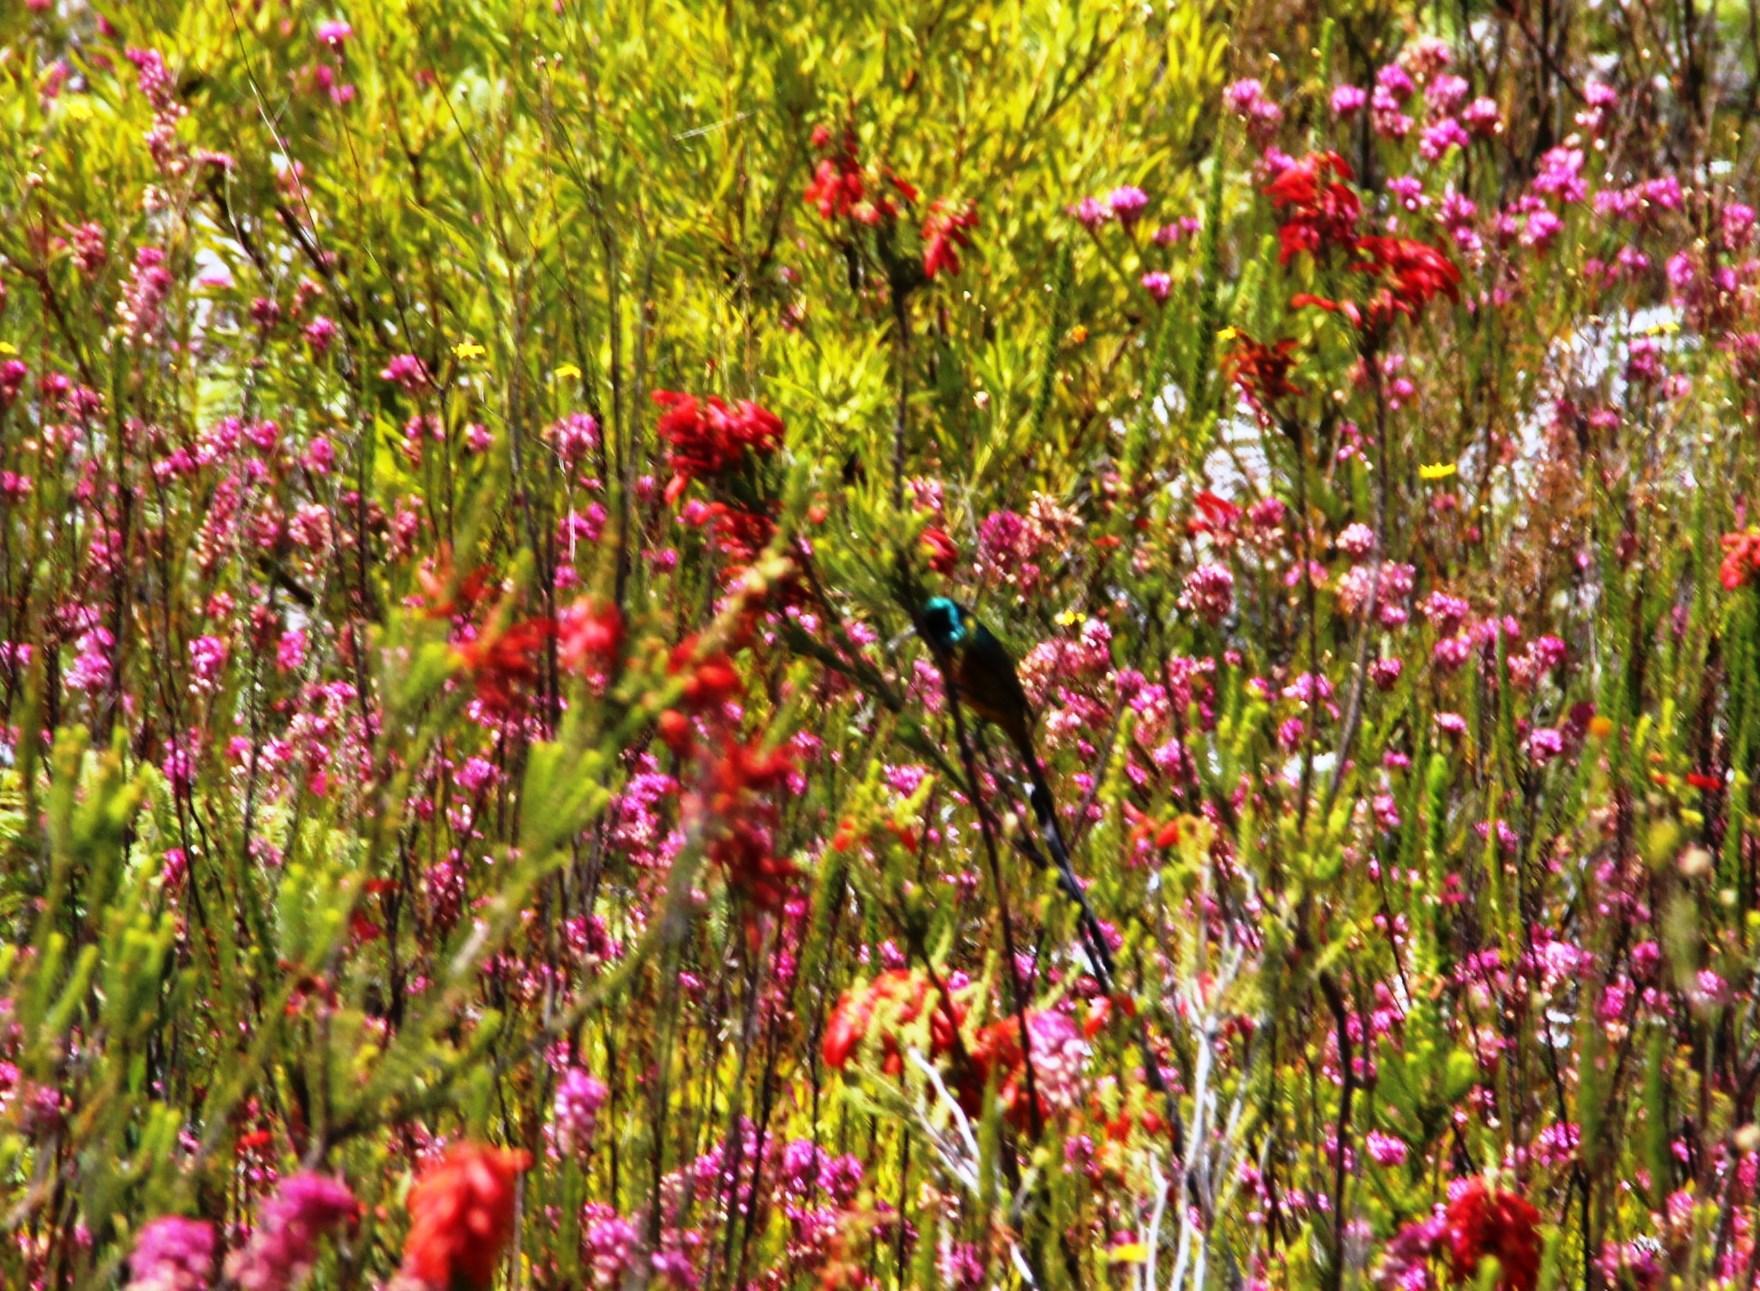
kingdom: Plantae
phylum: Tracheophyta
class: Magnoliopsida
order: Ericales
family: Ericaceae
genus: Erica
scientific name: Erica mammosa
